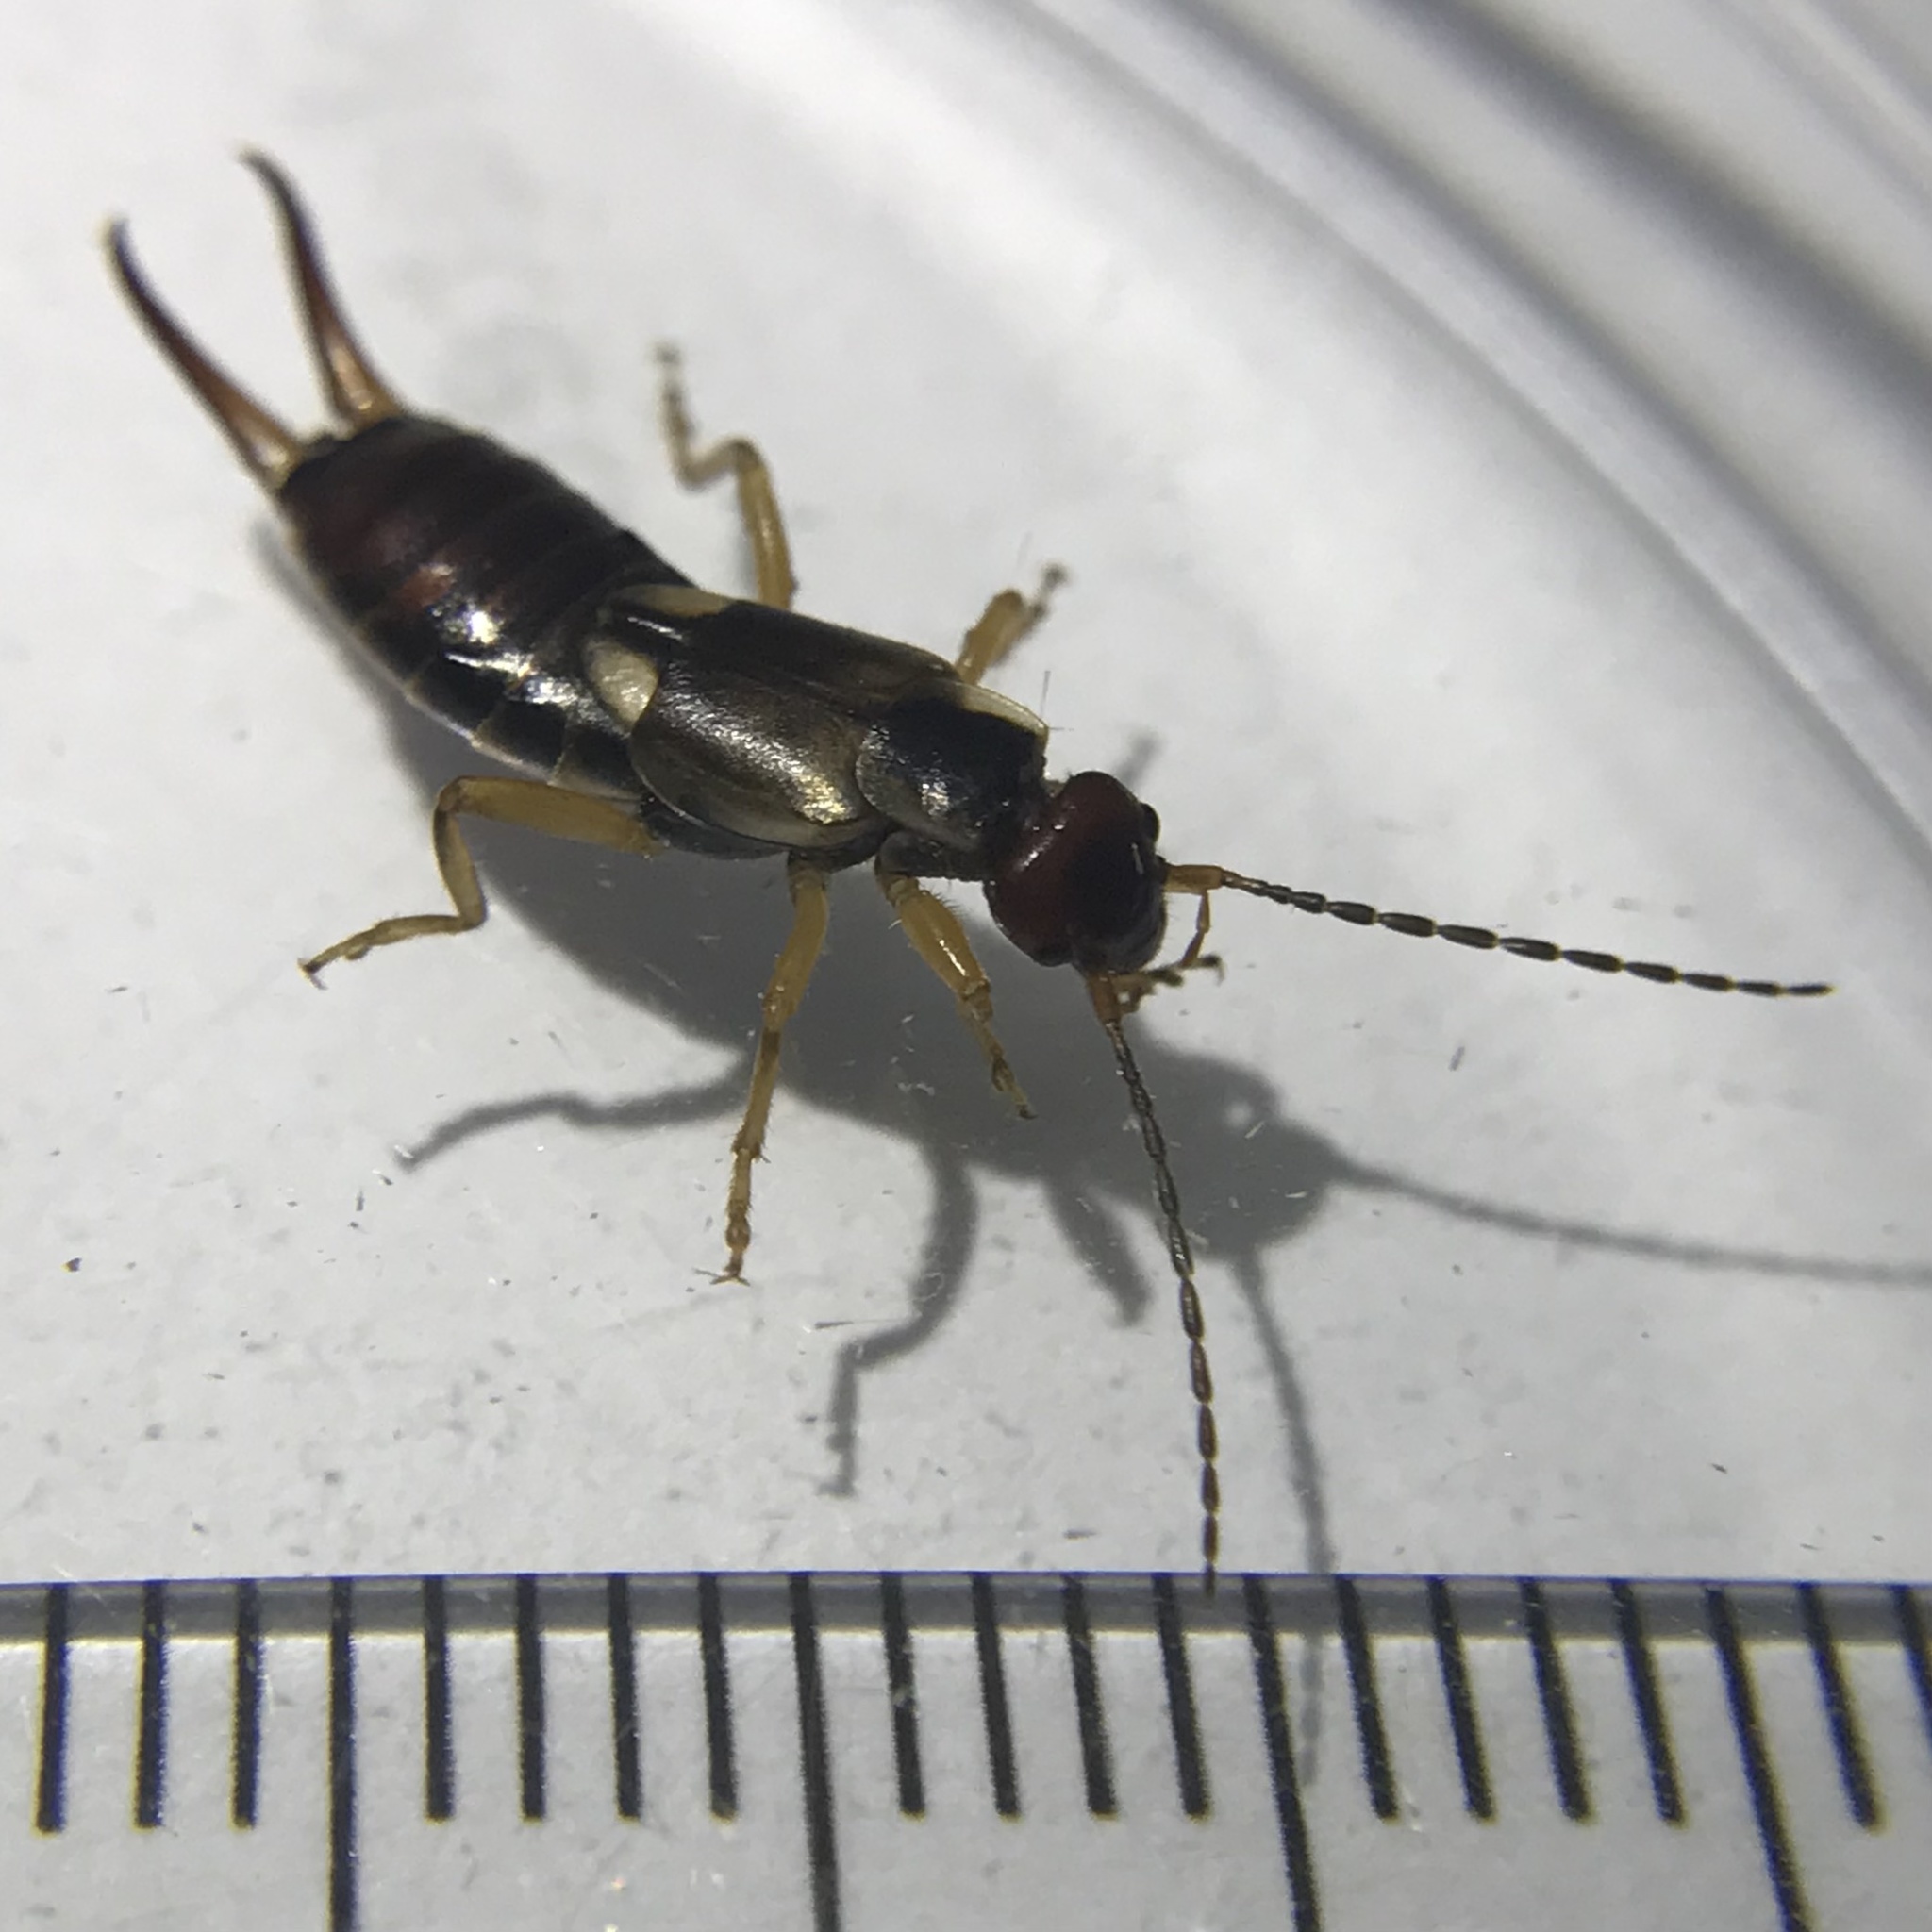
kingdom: Animalia
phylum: Arthropoda
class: Insecta
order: Dermaptera
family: Forficulidae
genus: Forficula
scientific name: Forficula
